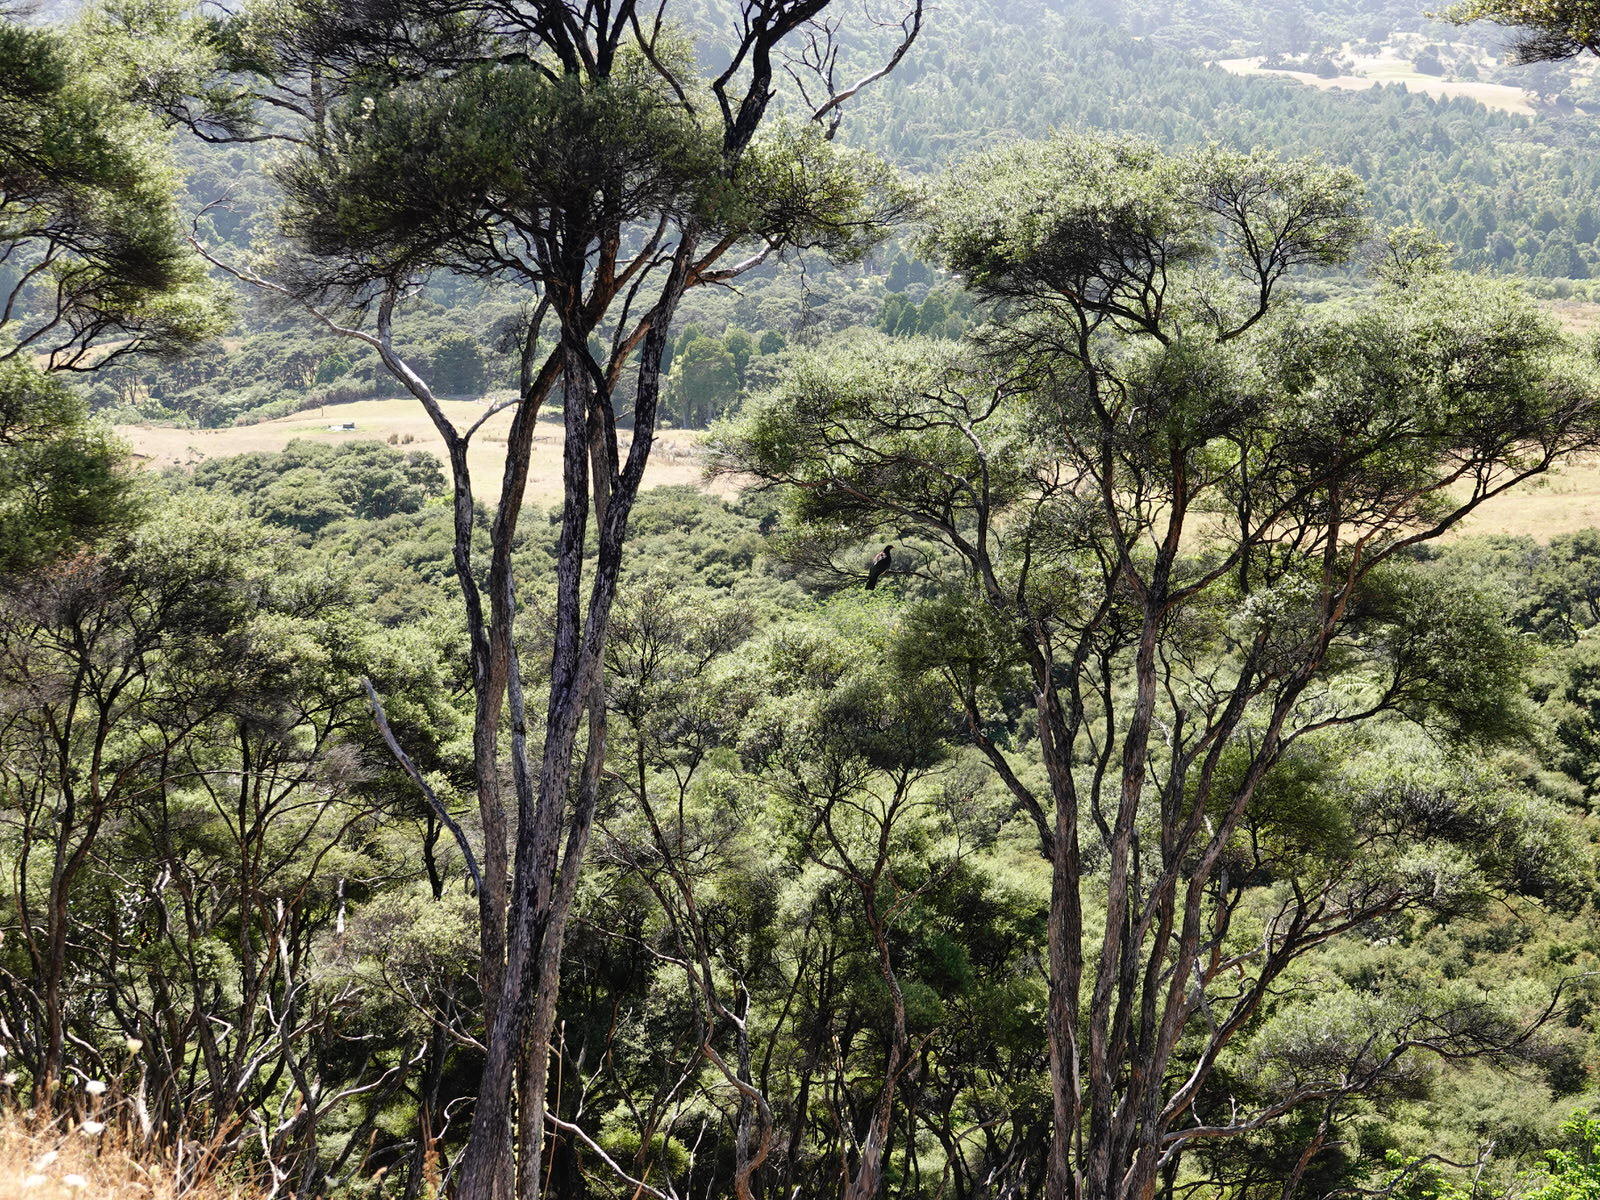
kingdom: Animalia
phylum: Chordata
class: Aves
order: Columbiformes
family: Columbidae
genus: Hemiphaga
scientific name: Hemiphaga novaeseelandiae
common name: New zealand pigeon
